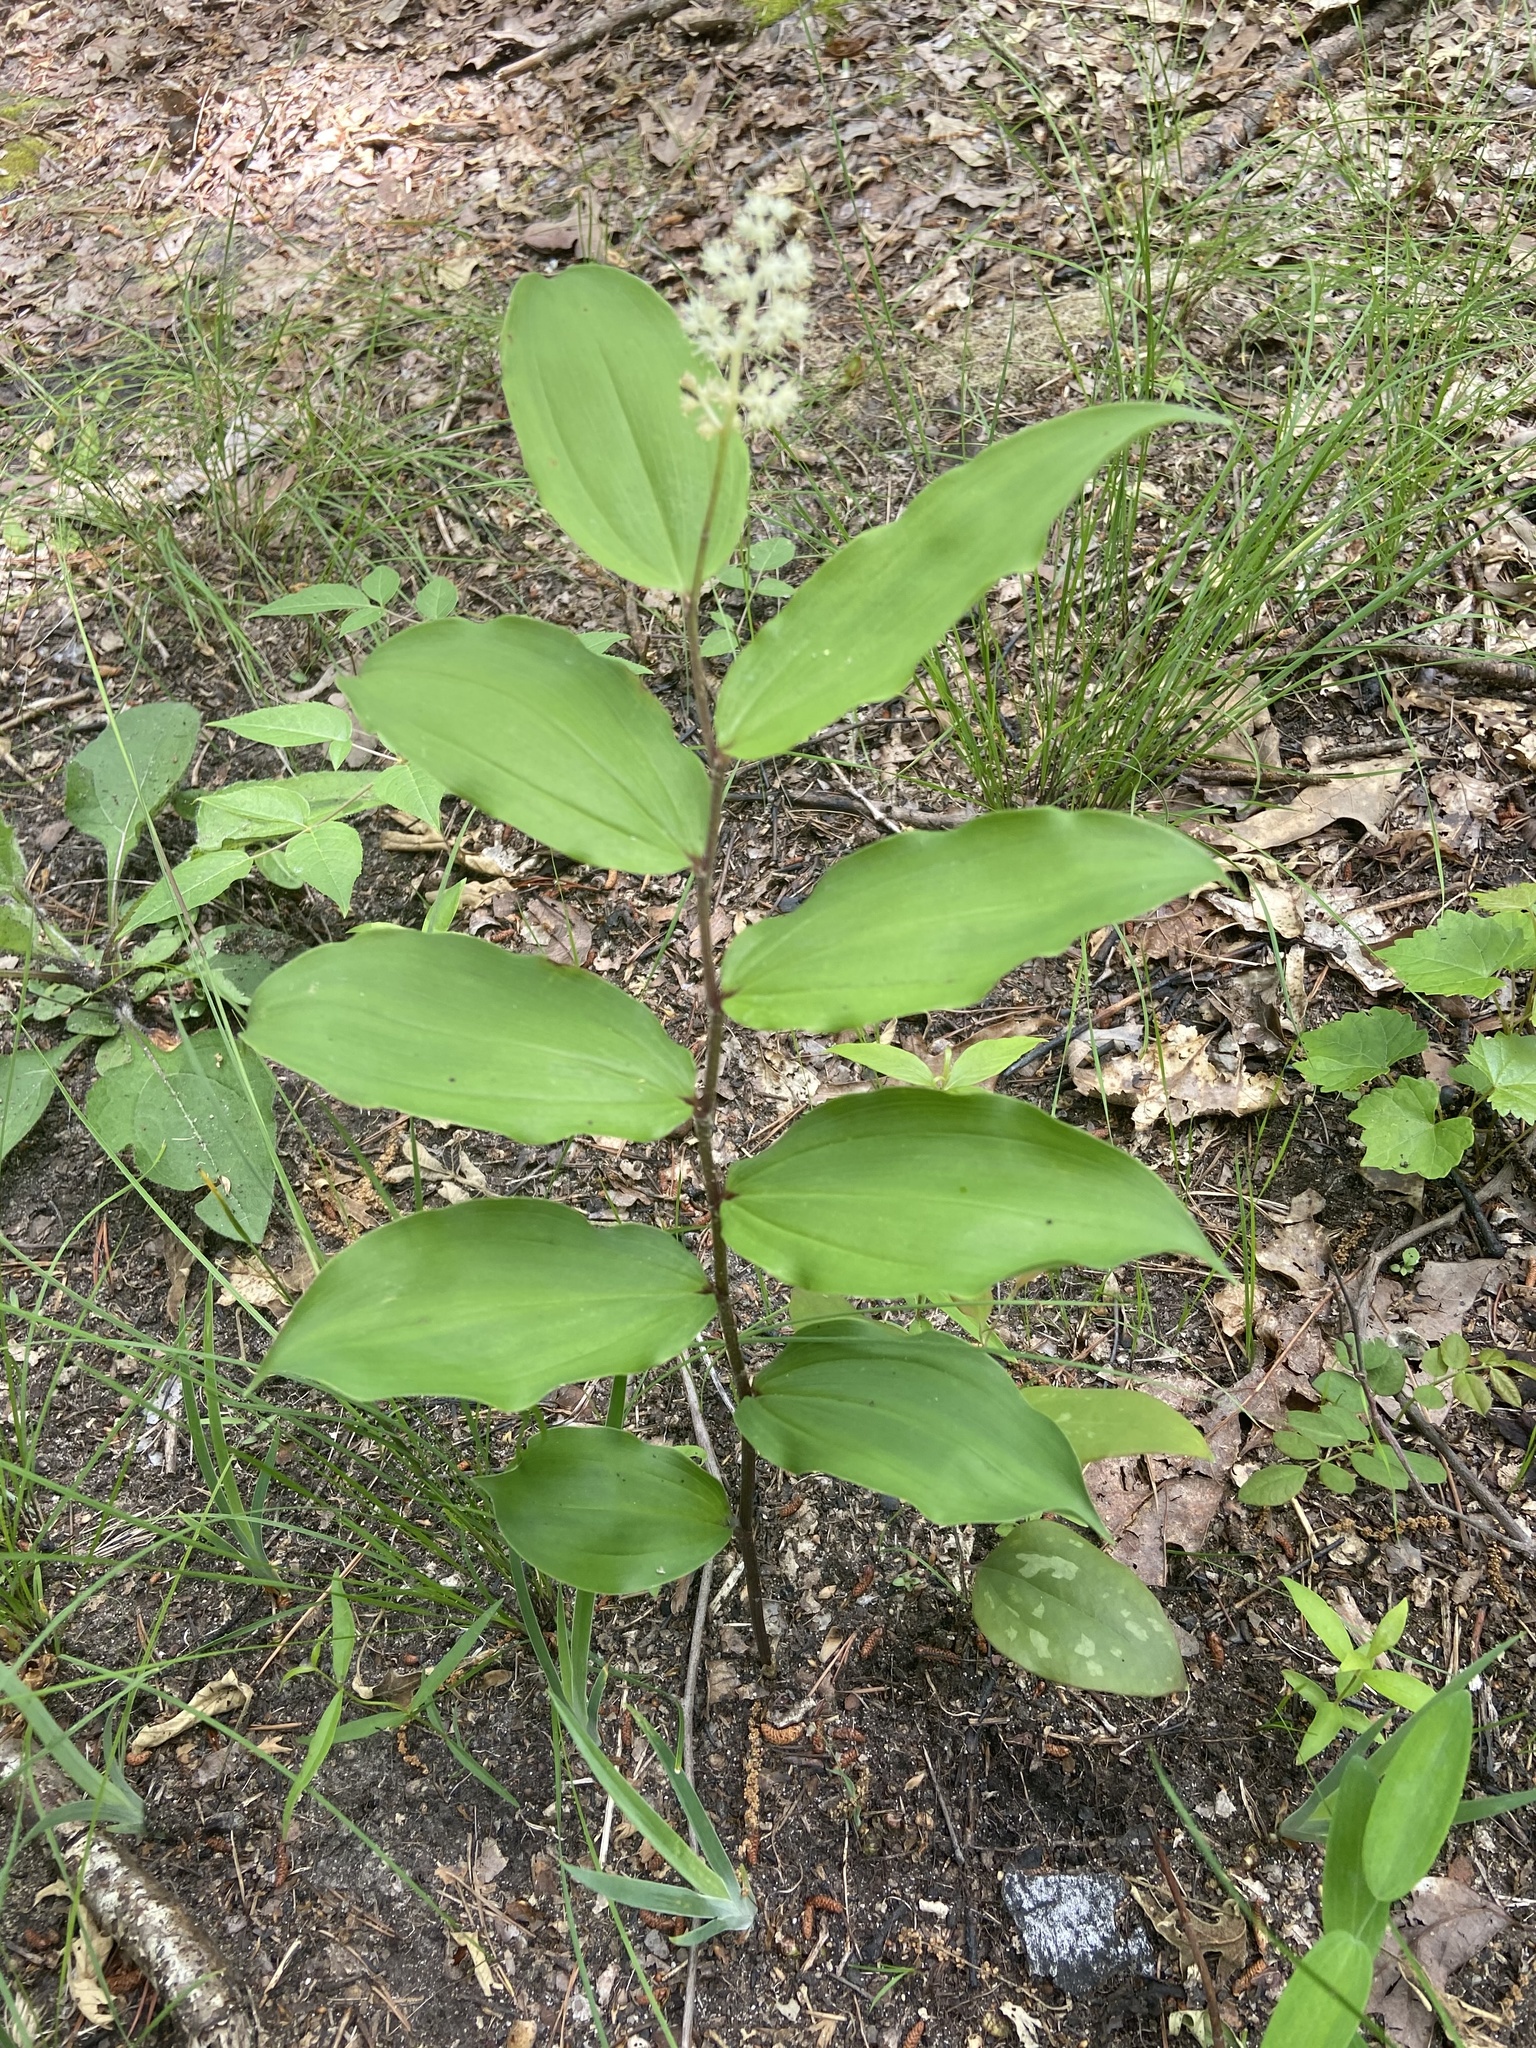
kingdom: Plantae
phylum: Tracheophyta
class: Liliopsida
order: Asparagales
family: Asparagaceae
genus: Maianthemum
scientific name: Maianthemum racemosum
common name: False spikenard
